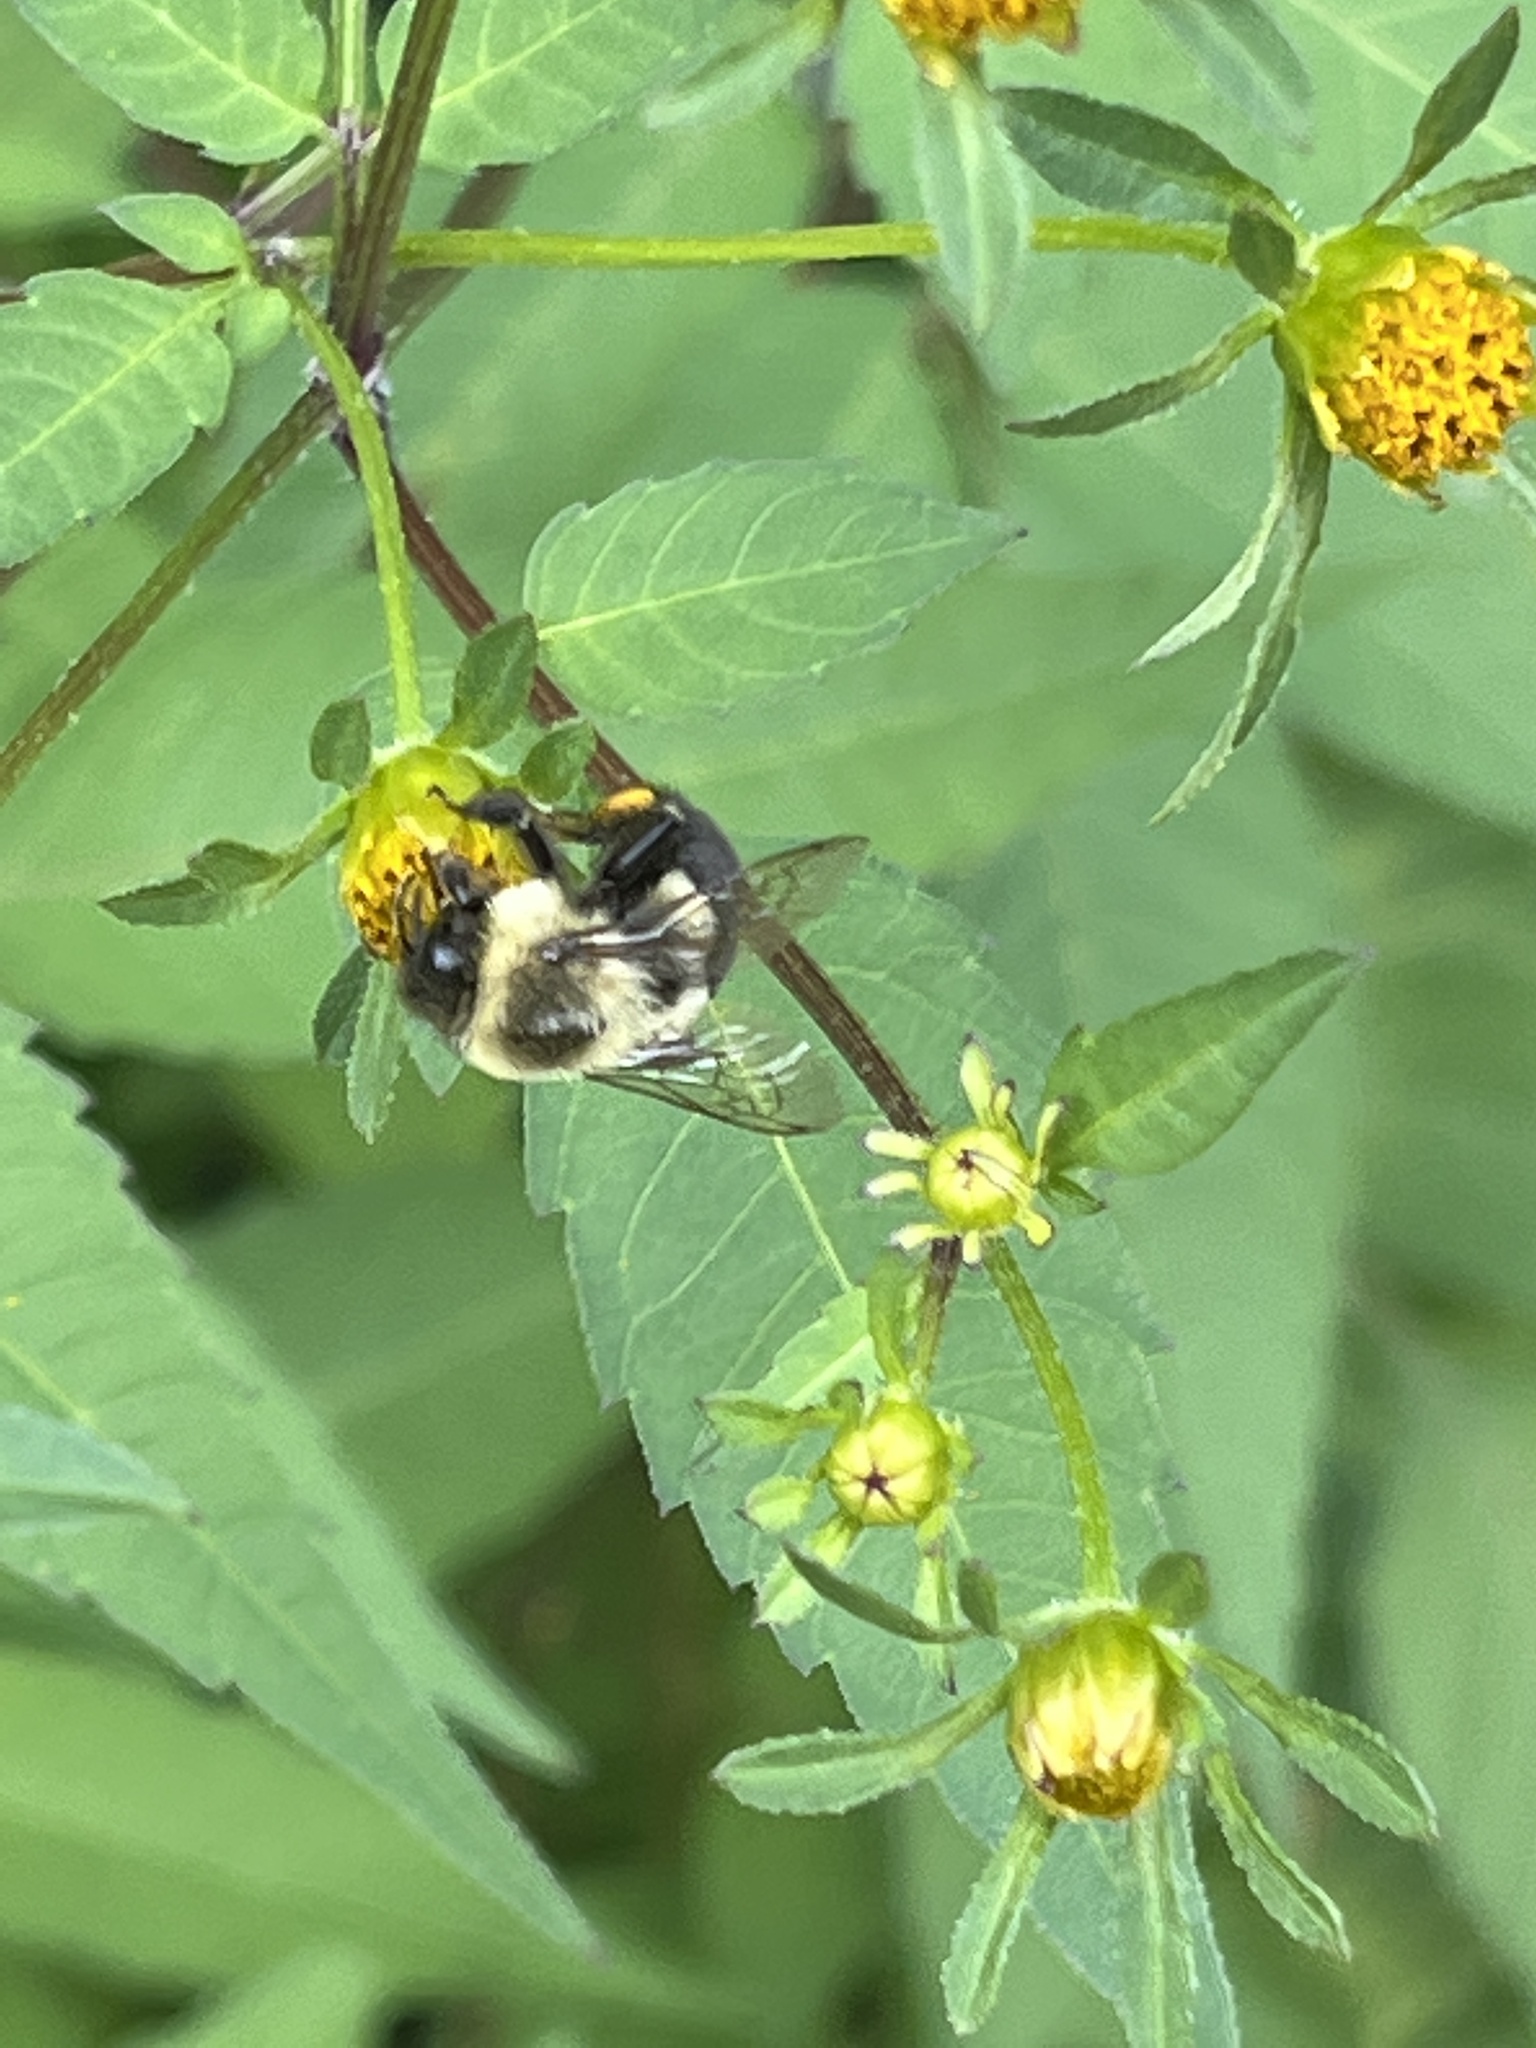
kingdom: Animalia
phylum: Arthropoda
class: Insecta
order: Hymenoptera
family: Apidae
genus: Bombus
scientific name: Bombus impatiens
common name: Common eastern bumble bee
